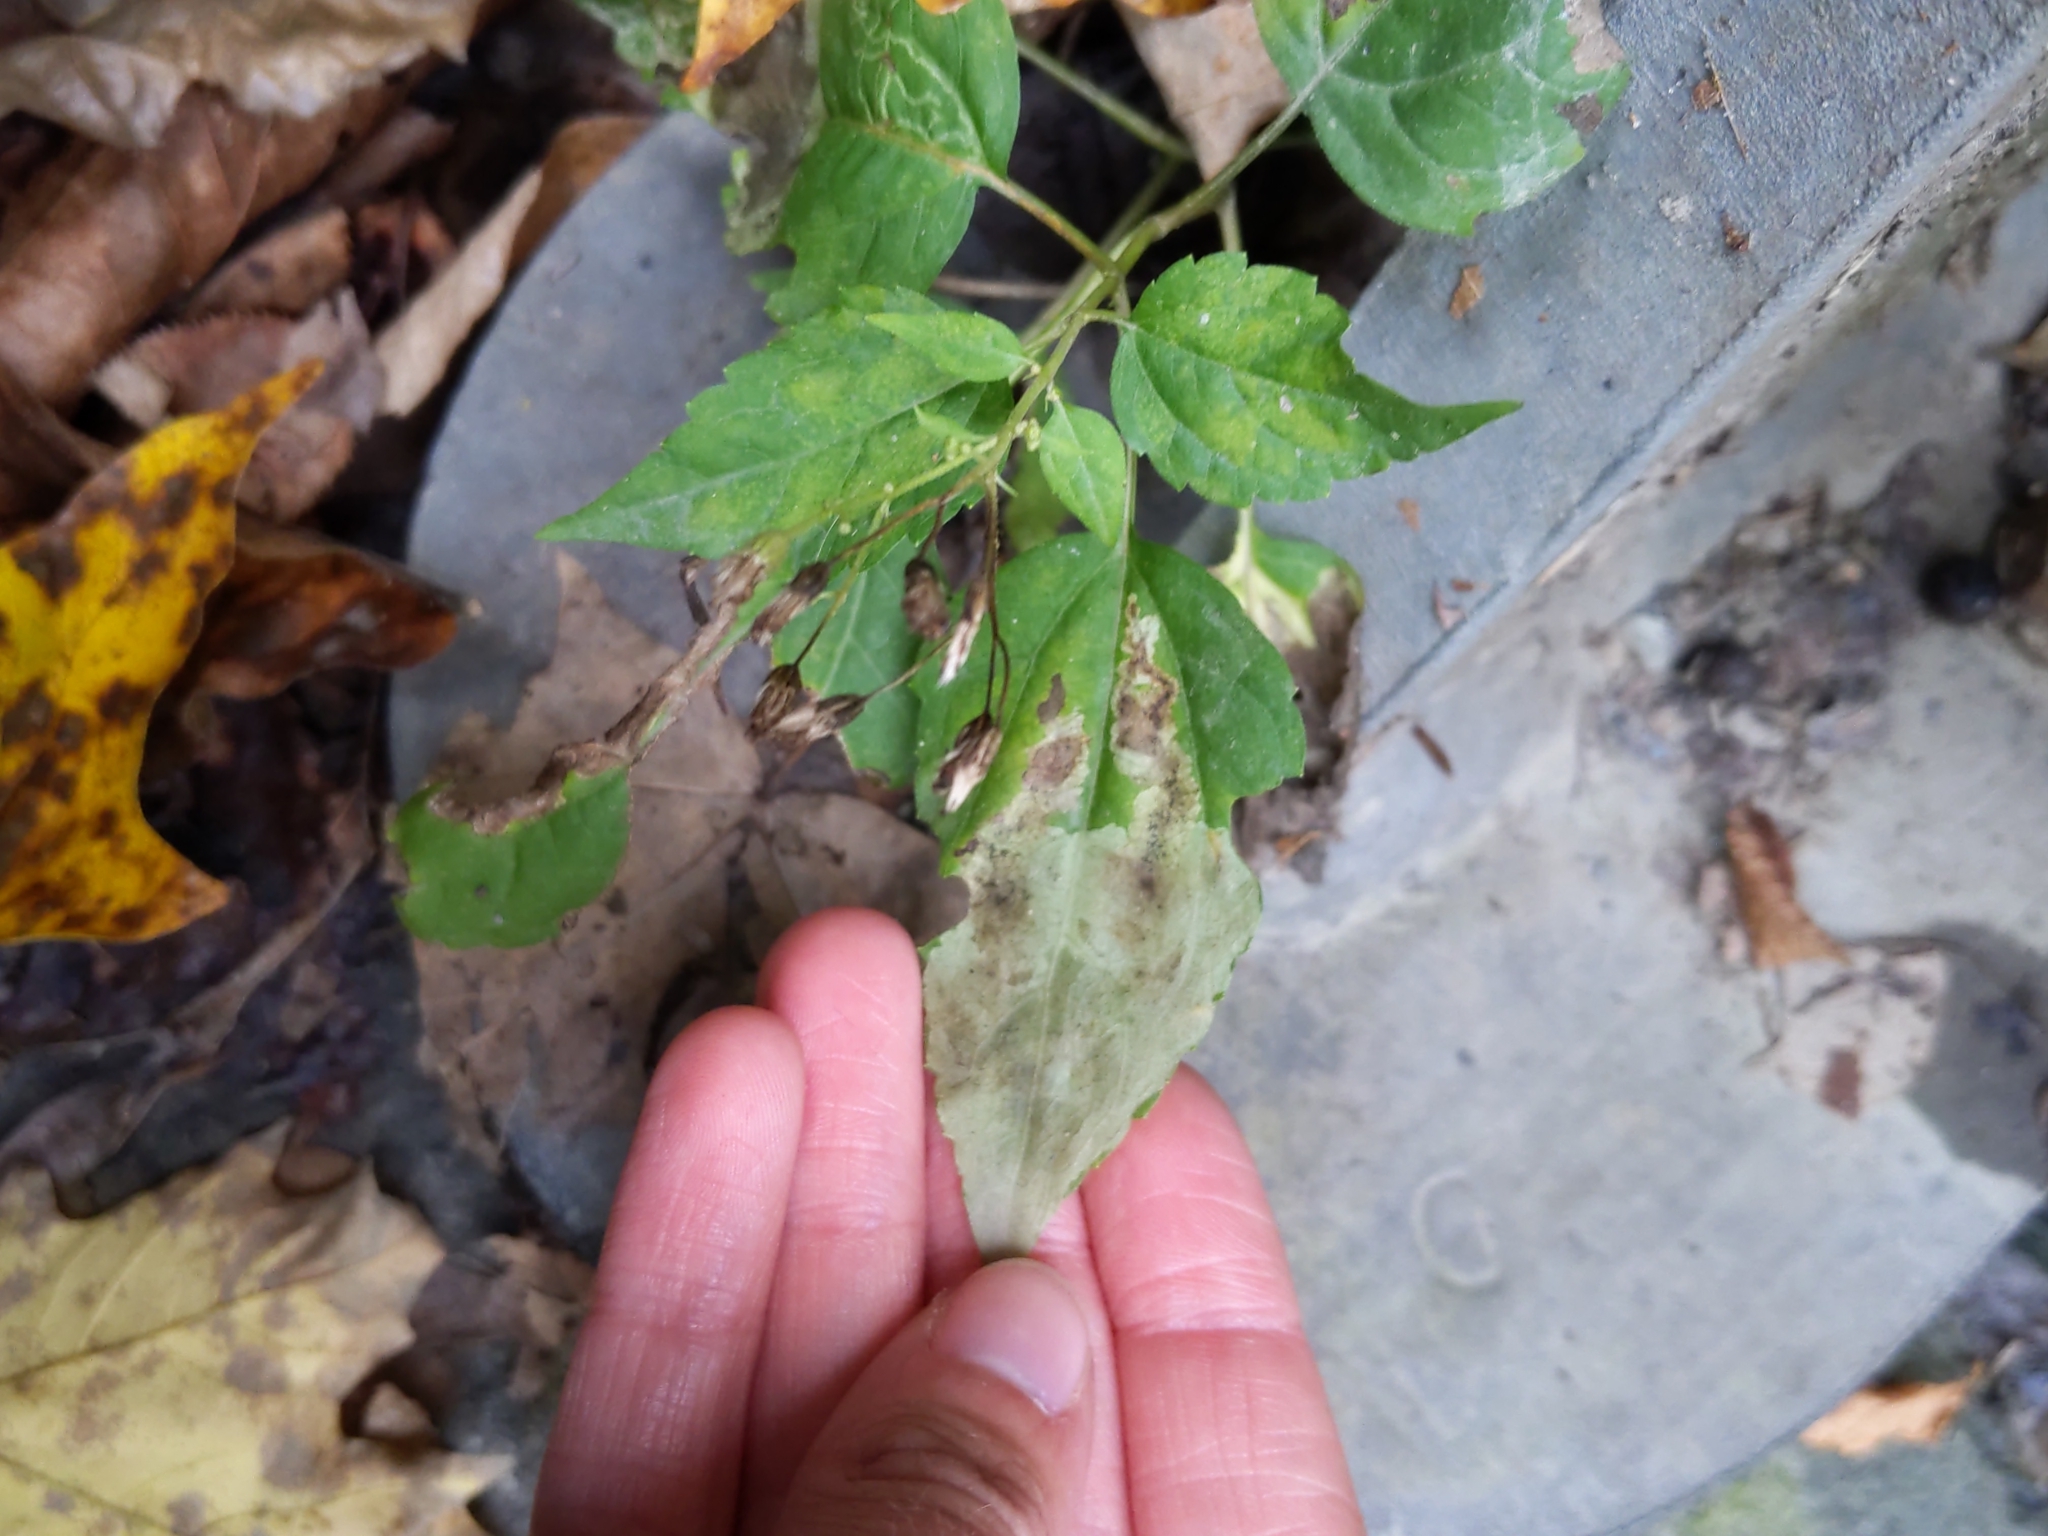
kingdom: Plantae
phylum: Tracheophyta
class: Magnoliopsida
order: Asterales
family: Asteraceae
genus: Ageratina
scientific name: Ageratina altissima
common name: White snakeroot
